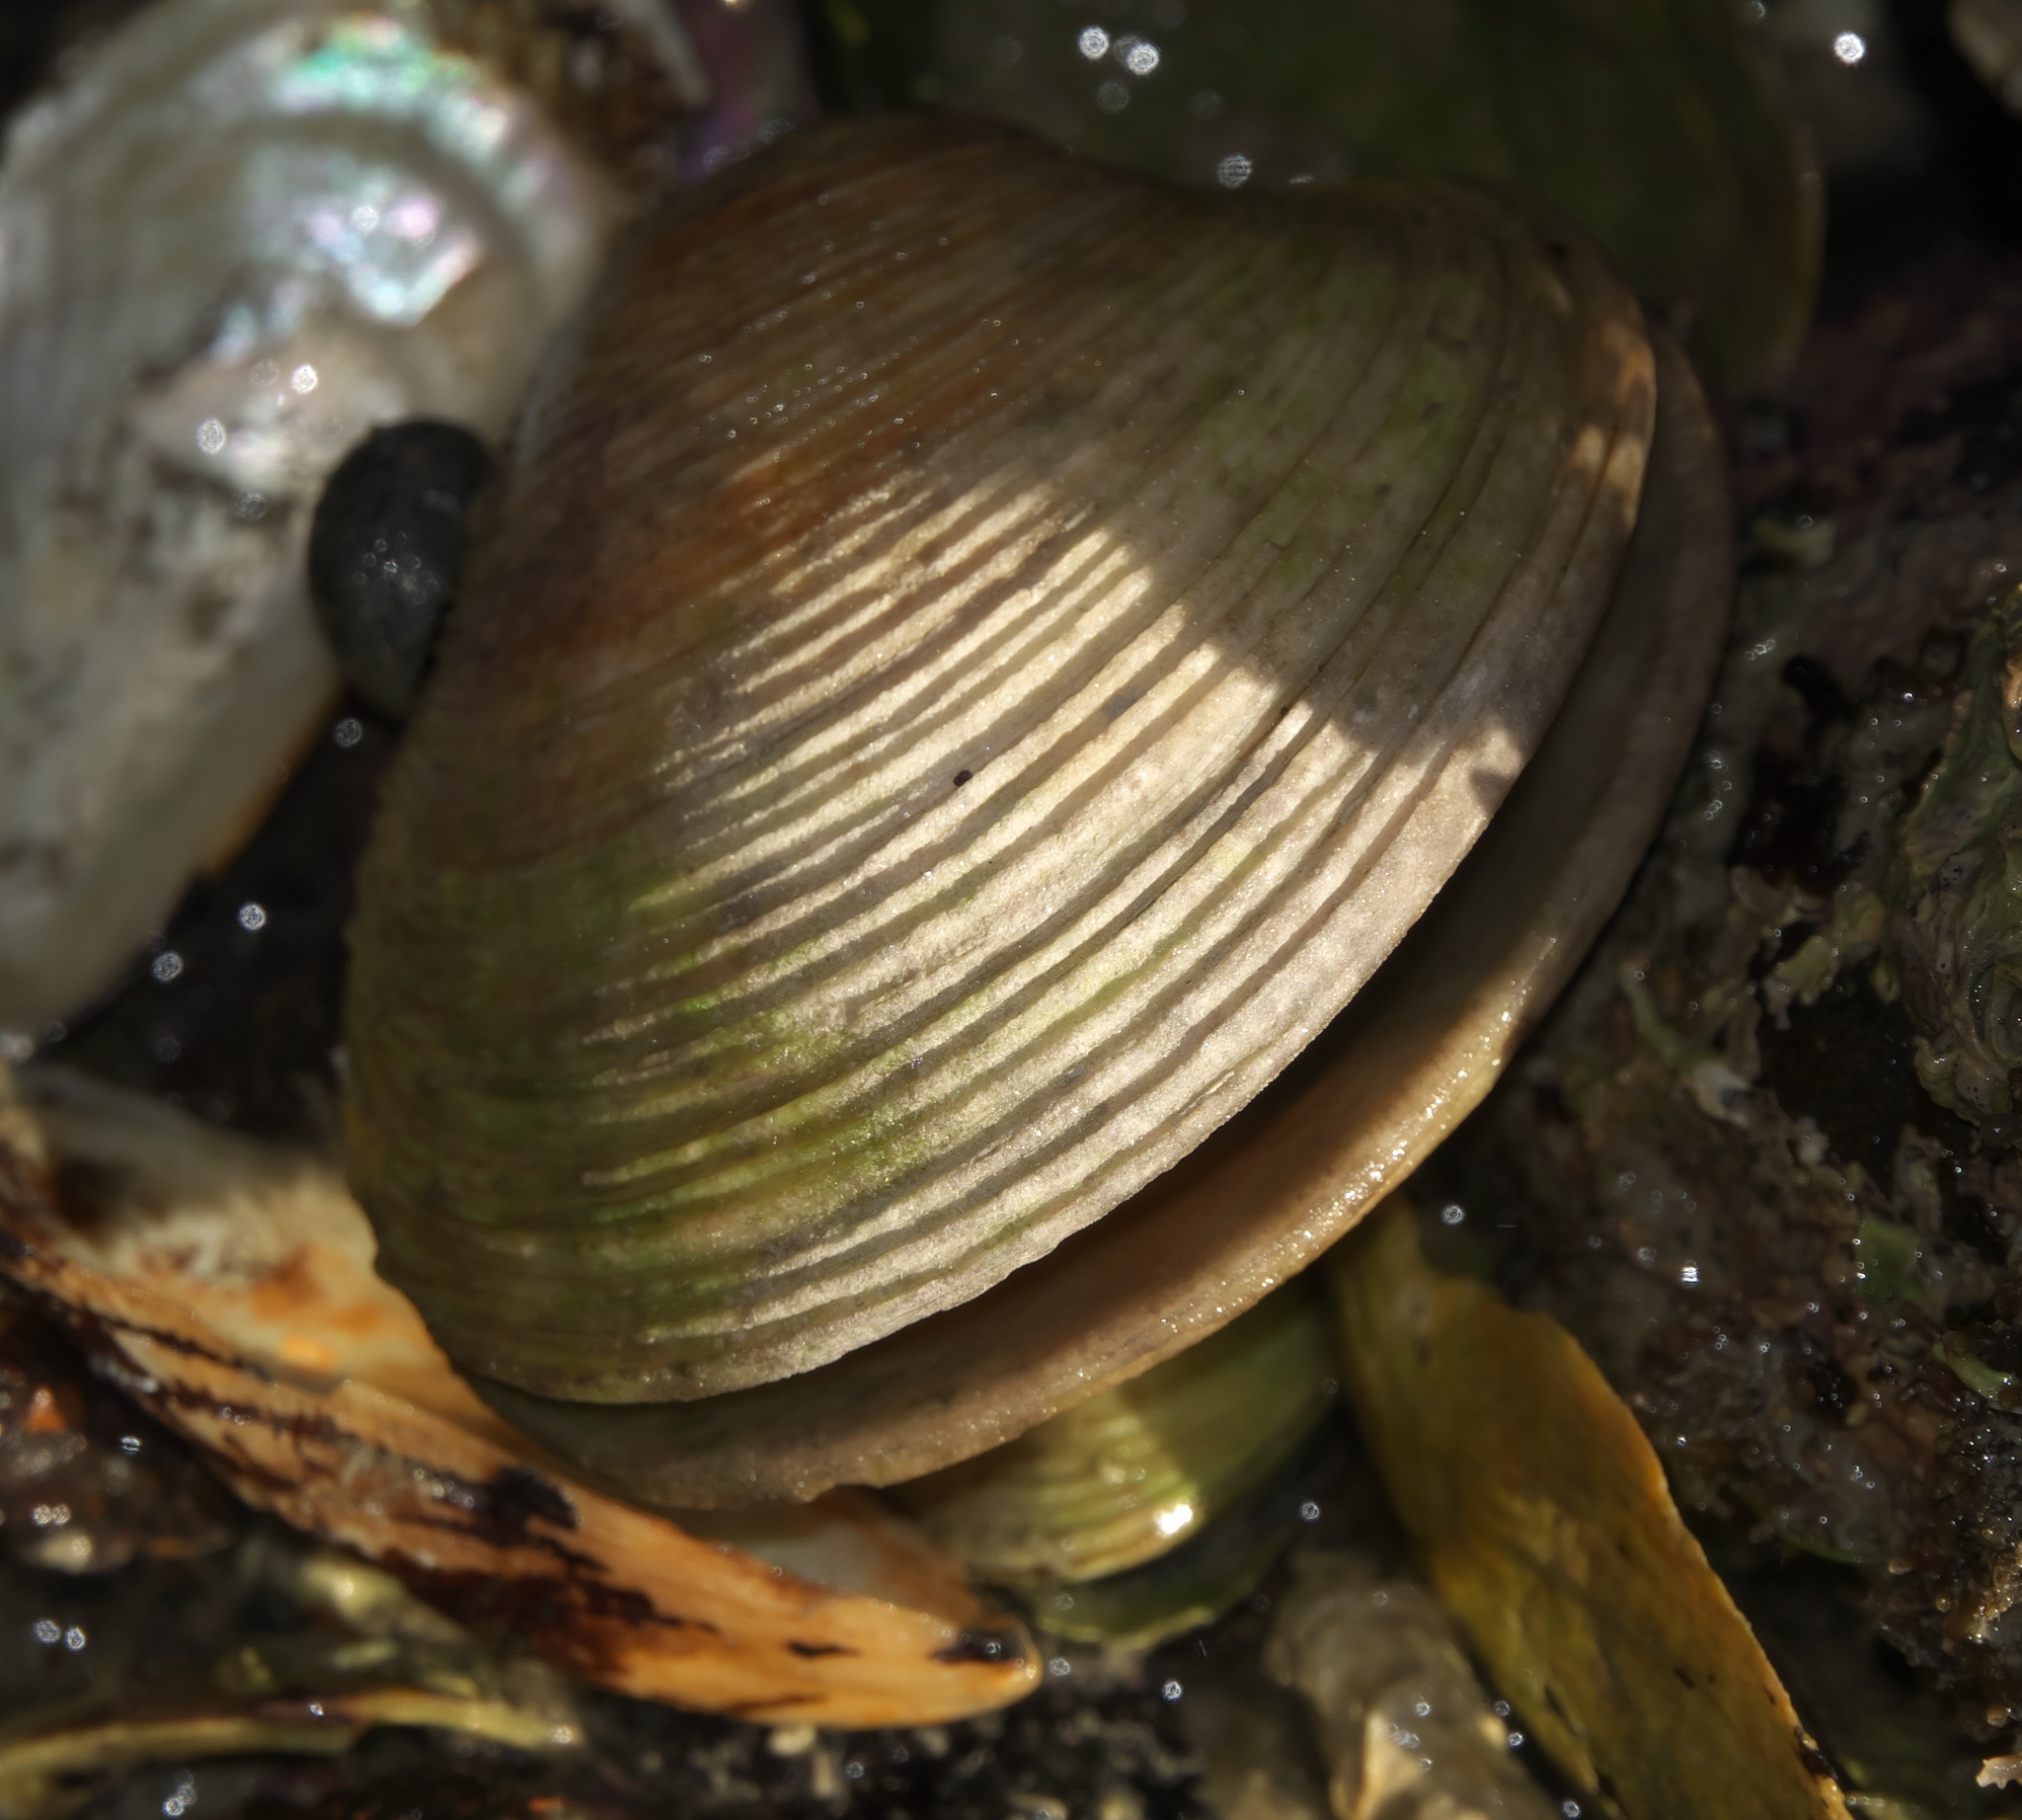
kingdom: Animalia
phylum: Mollusca
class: Bivalvia
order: Venerida
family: Veneridae
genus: Dosina
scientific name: Dosina mactracea
